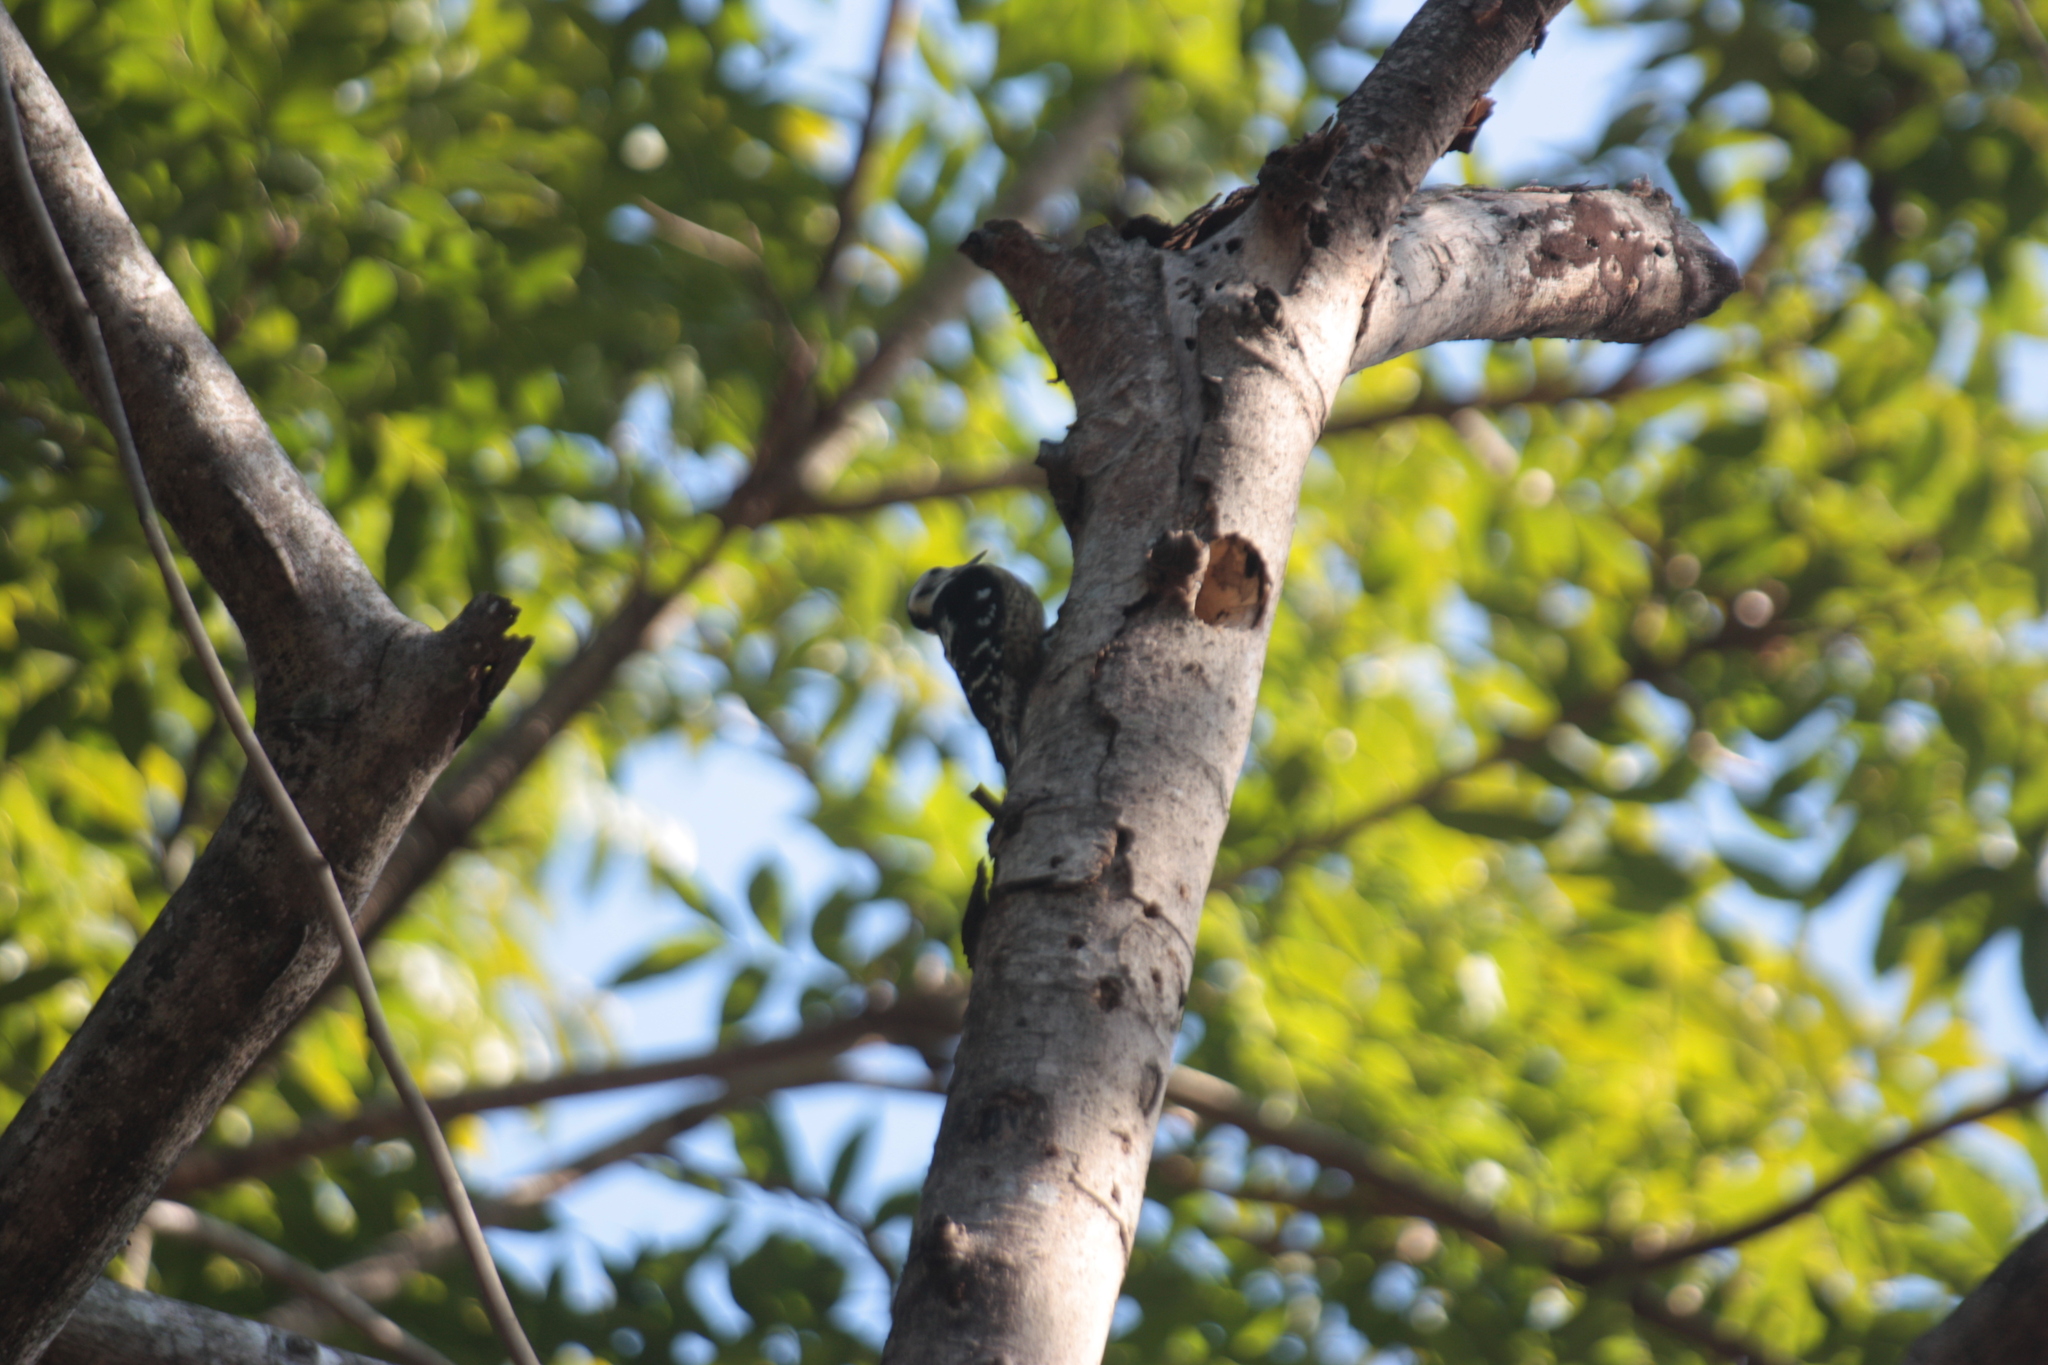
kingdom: Animalia
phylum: Chordata
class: Aves
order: Piciformes
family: Picidae
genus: Yungipicus
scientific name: Yungipicus canicapillus
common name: Grey-capped pygmy woodpecker
